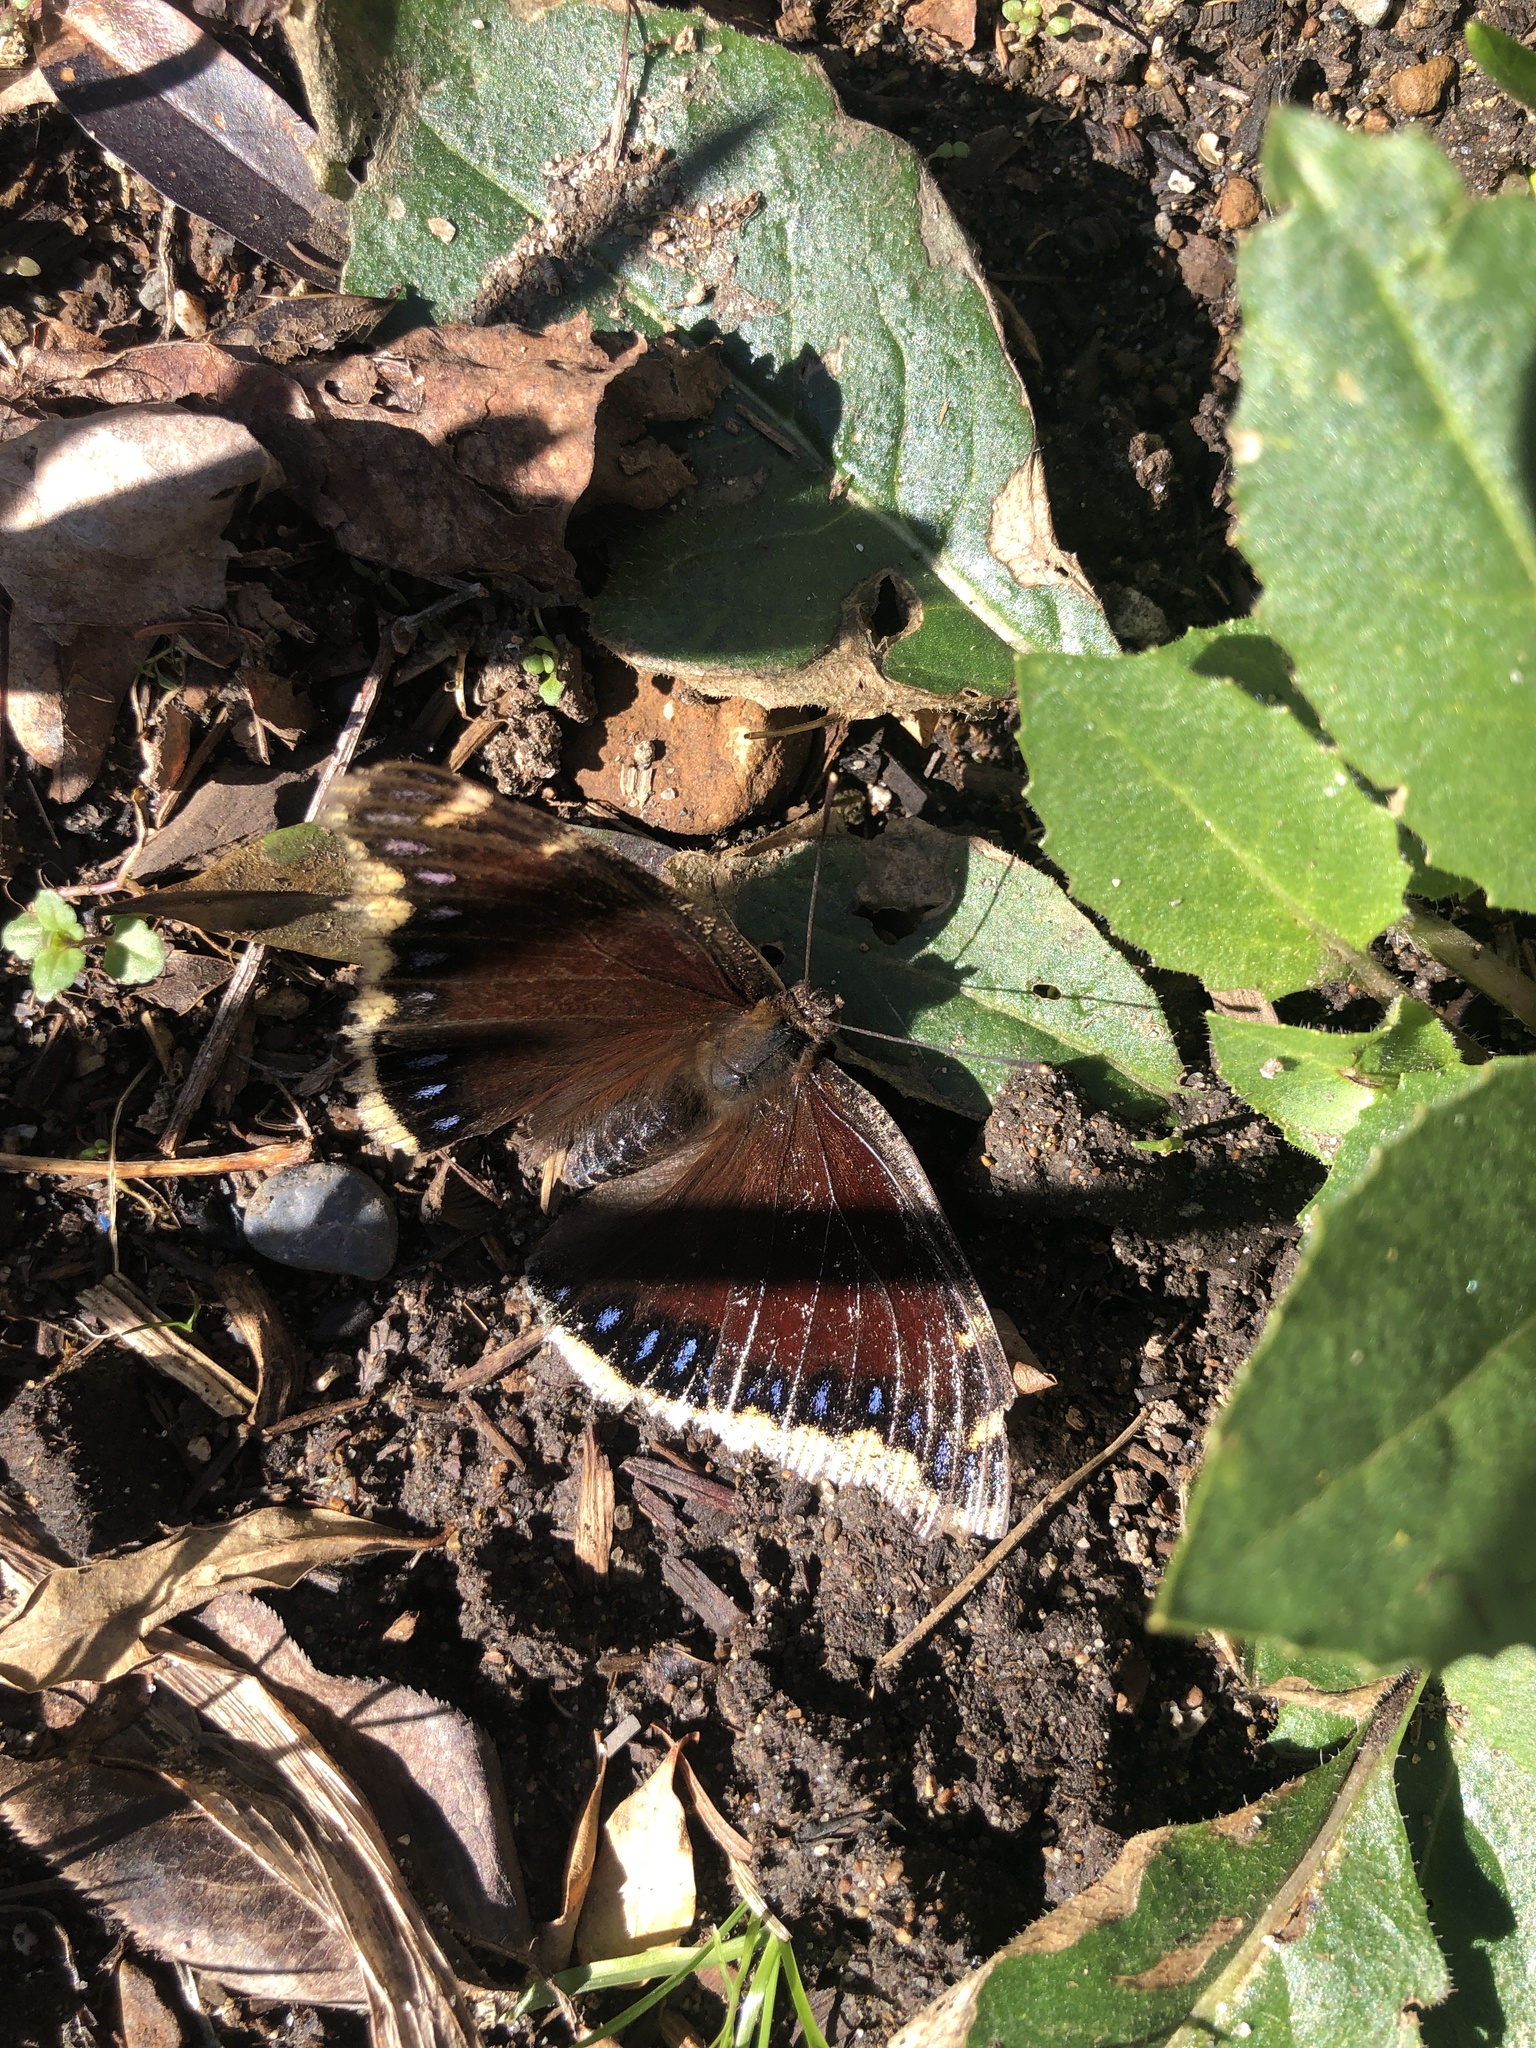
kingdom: Animalia
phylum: Arthropoda
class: Insecta
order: Lepidoptera
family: Nymphalidae
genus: Nymphalis
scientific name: Nymphalis antiopa
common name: Camberwell beauty
